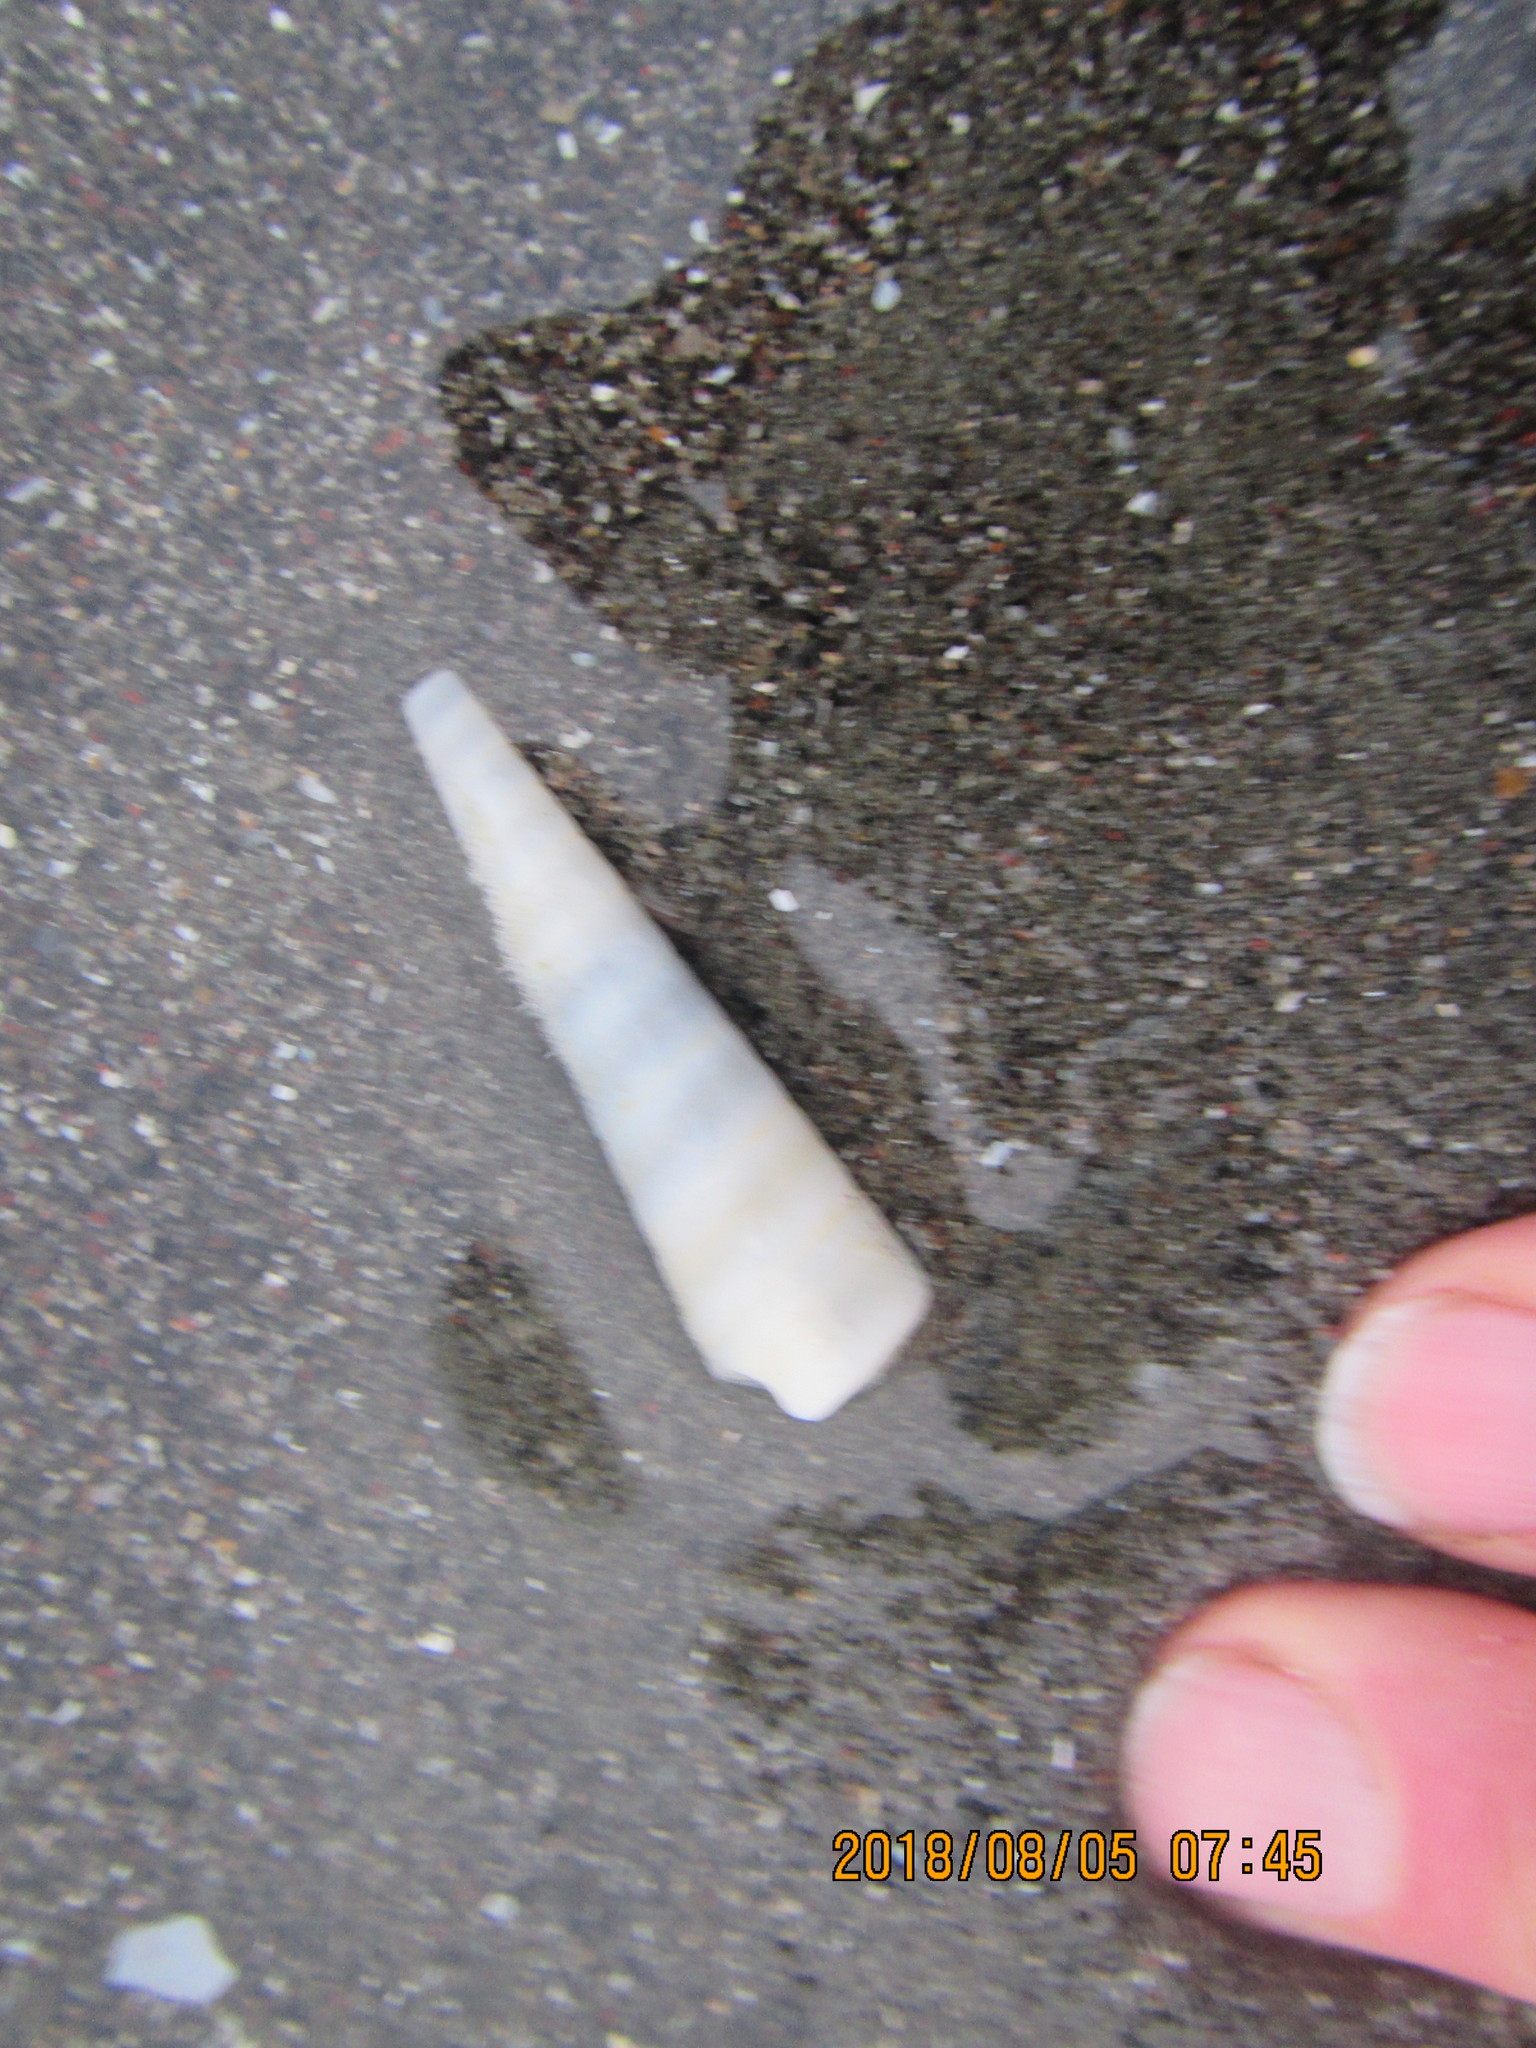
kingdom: Animalia
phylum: Mollusca
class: Gastropoda
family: Turritellidae
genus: Zeacolpus
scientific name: Zeacolpus vittatus
